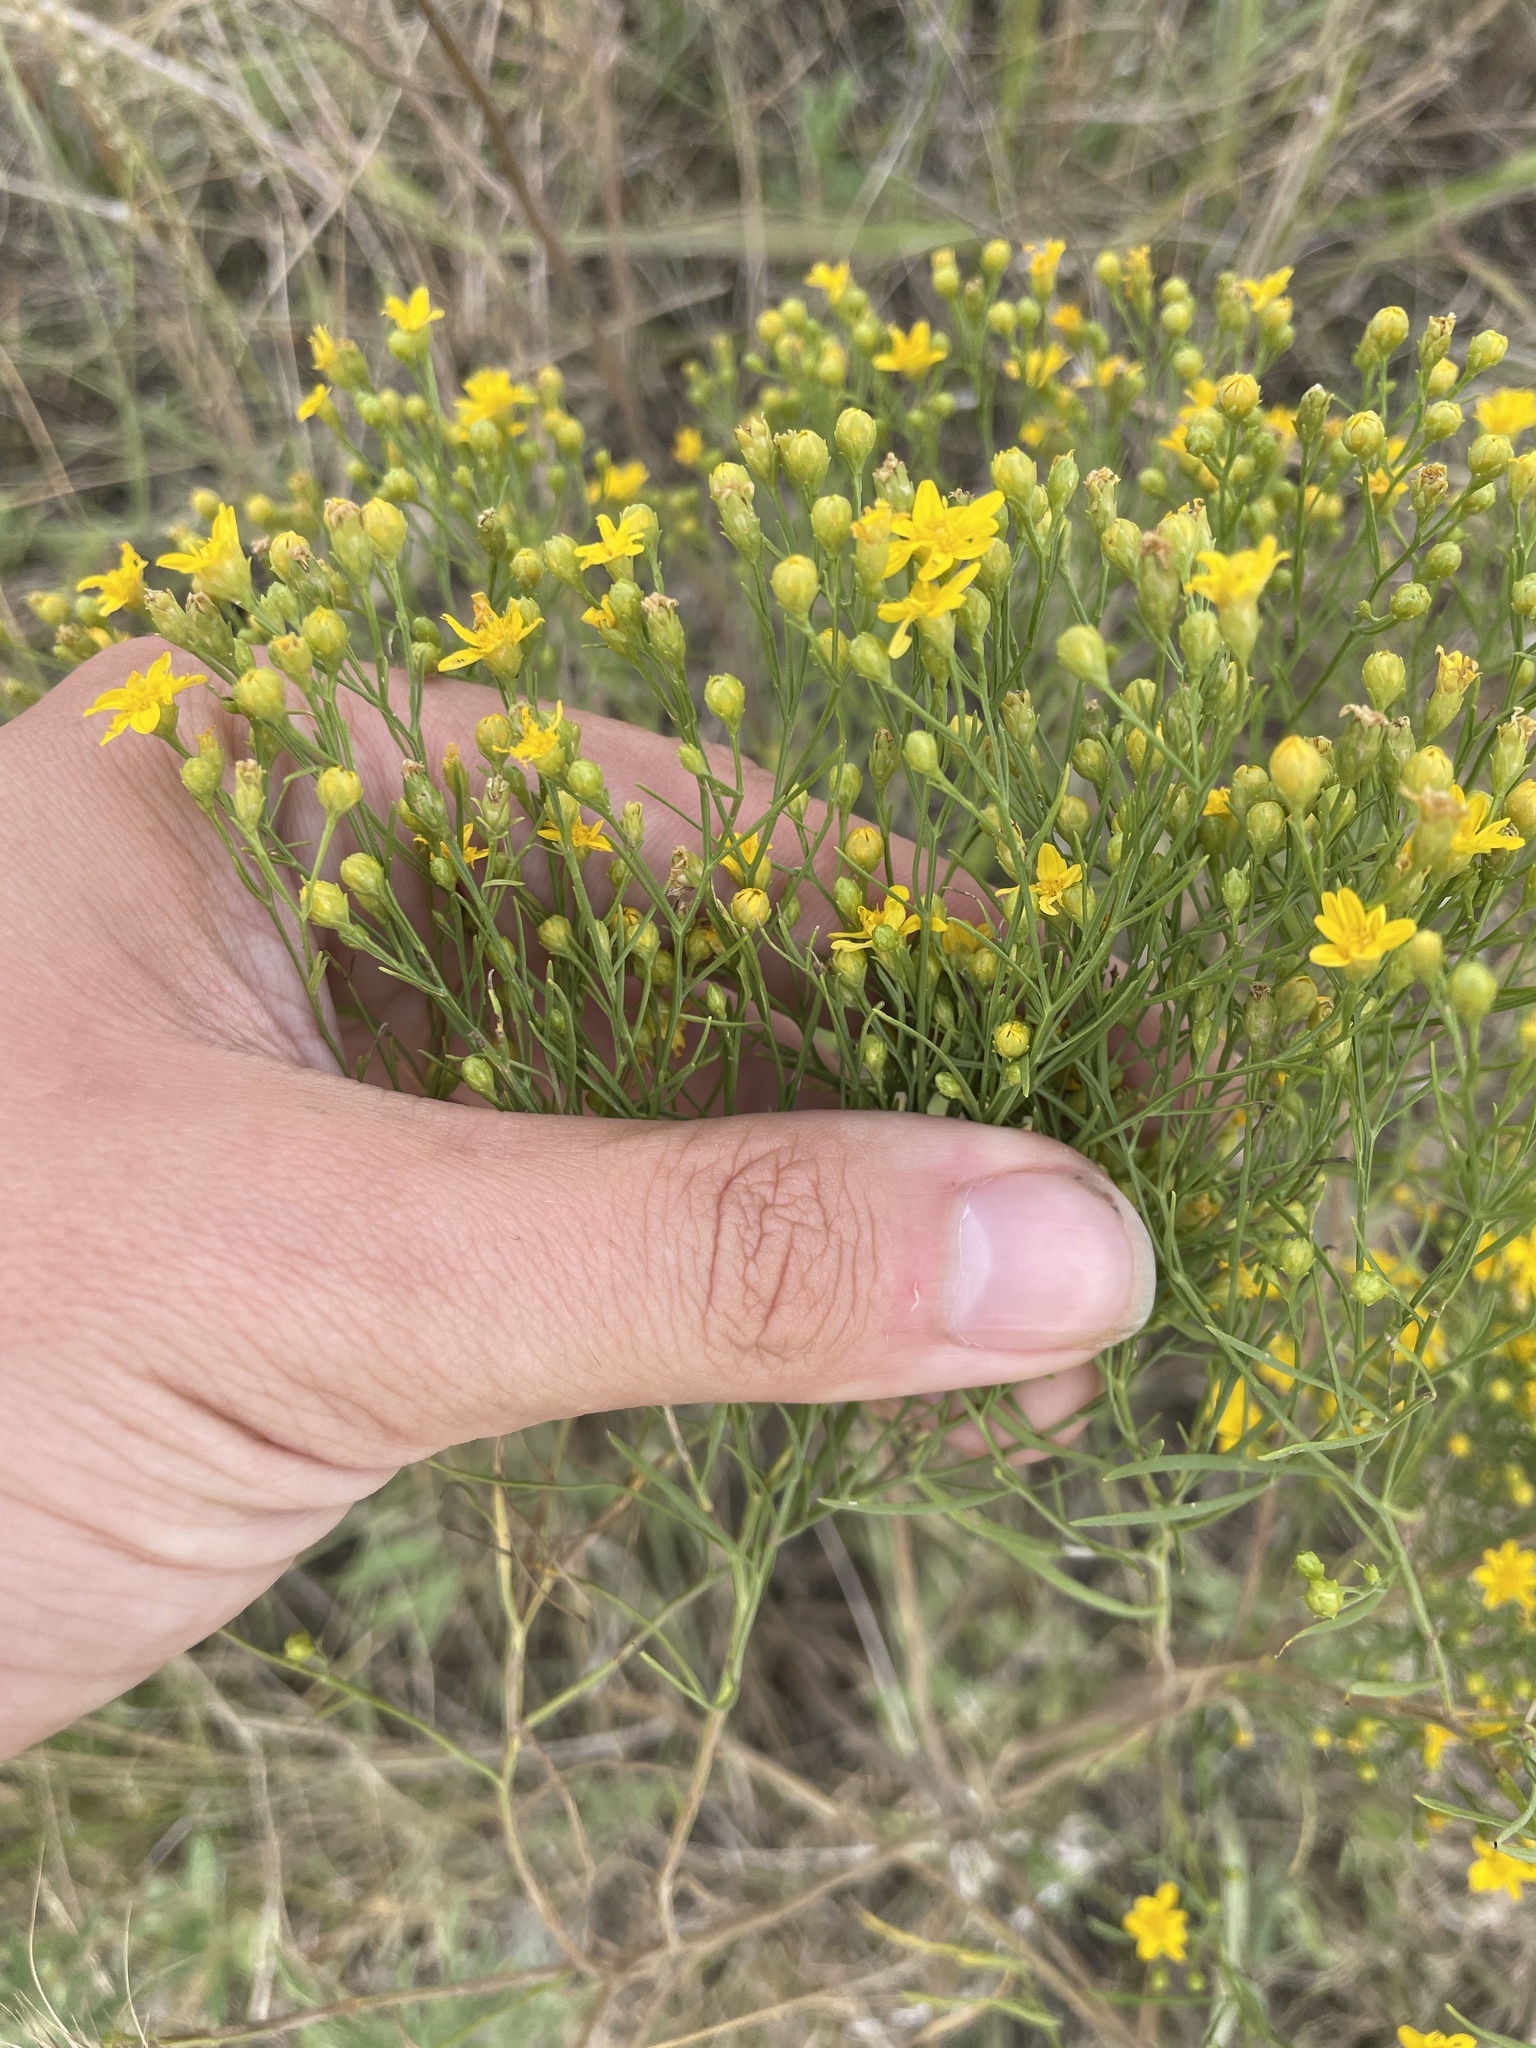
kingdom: Plantae
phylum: Tracheophyta
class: Magnoliopsida
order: Asterales
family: Asteraceae
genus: Amphiachyris
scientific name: Amphiachyris dracunculoides
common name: Broomweed
